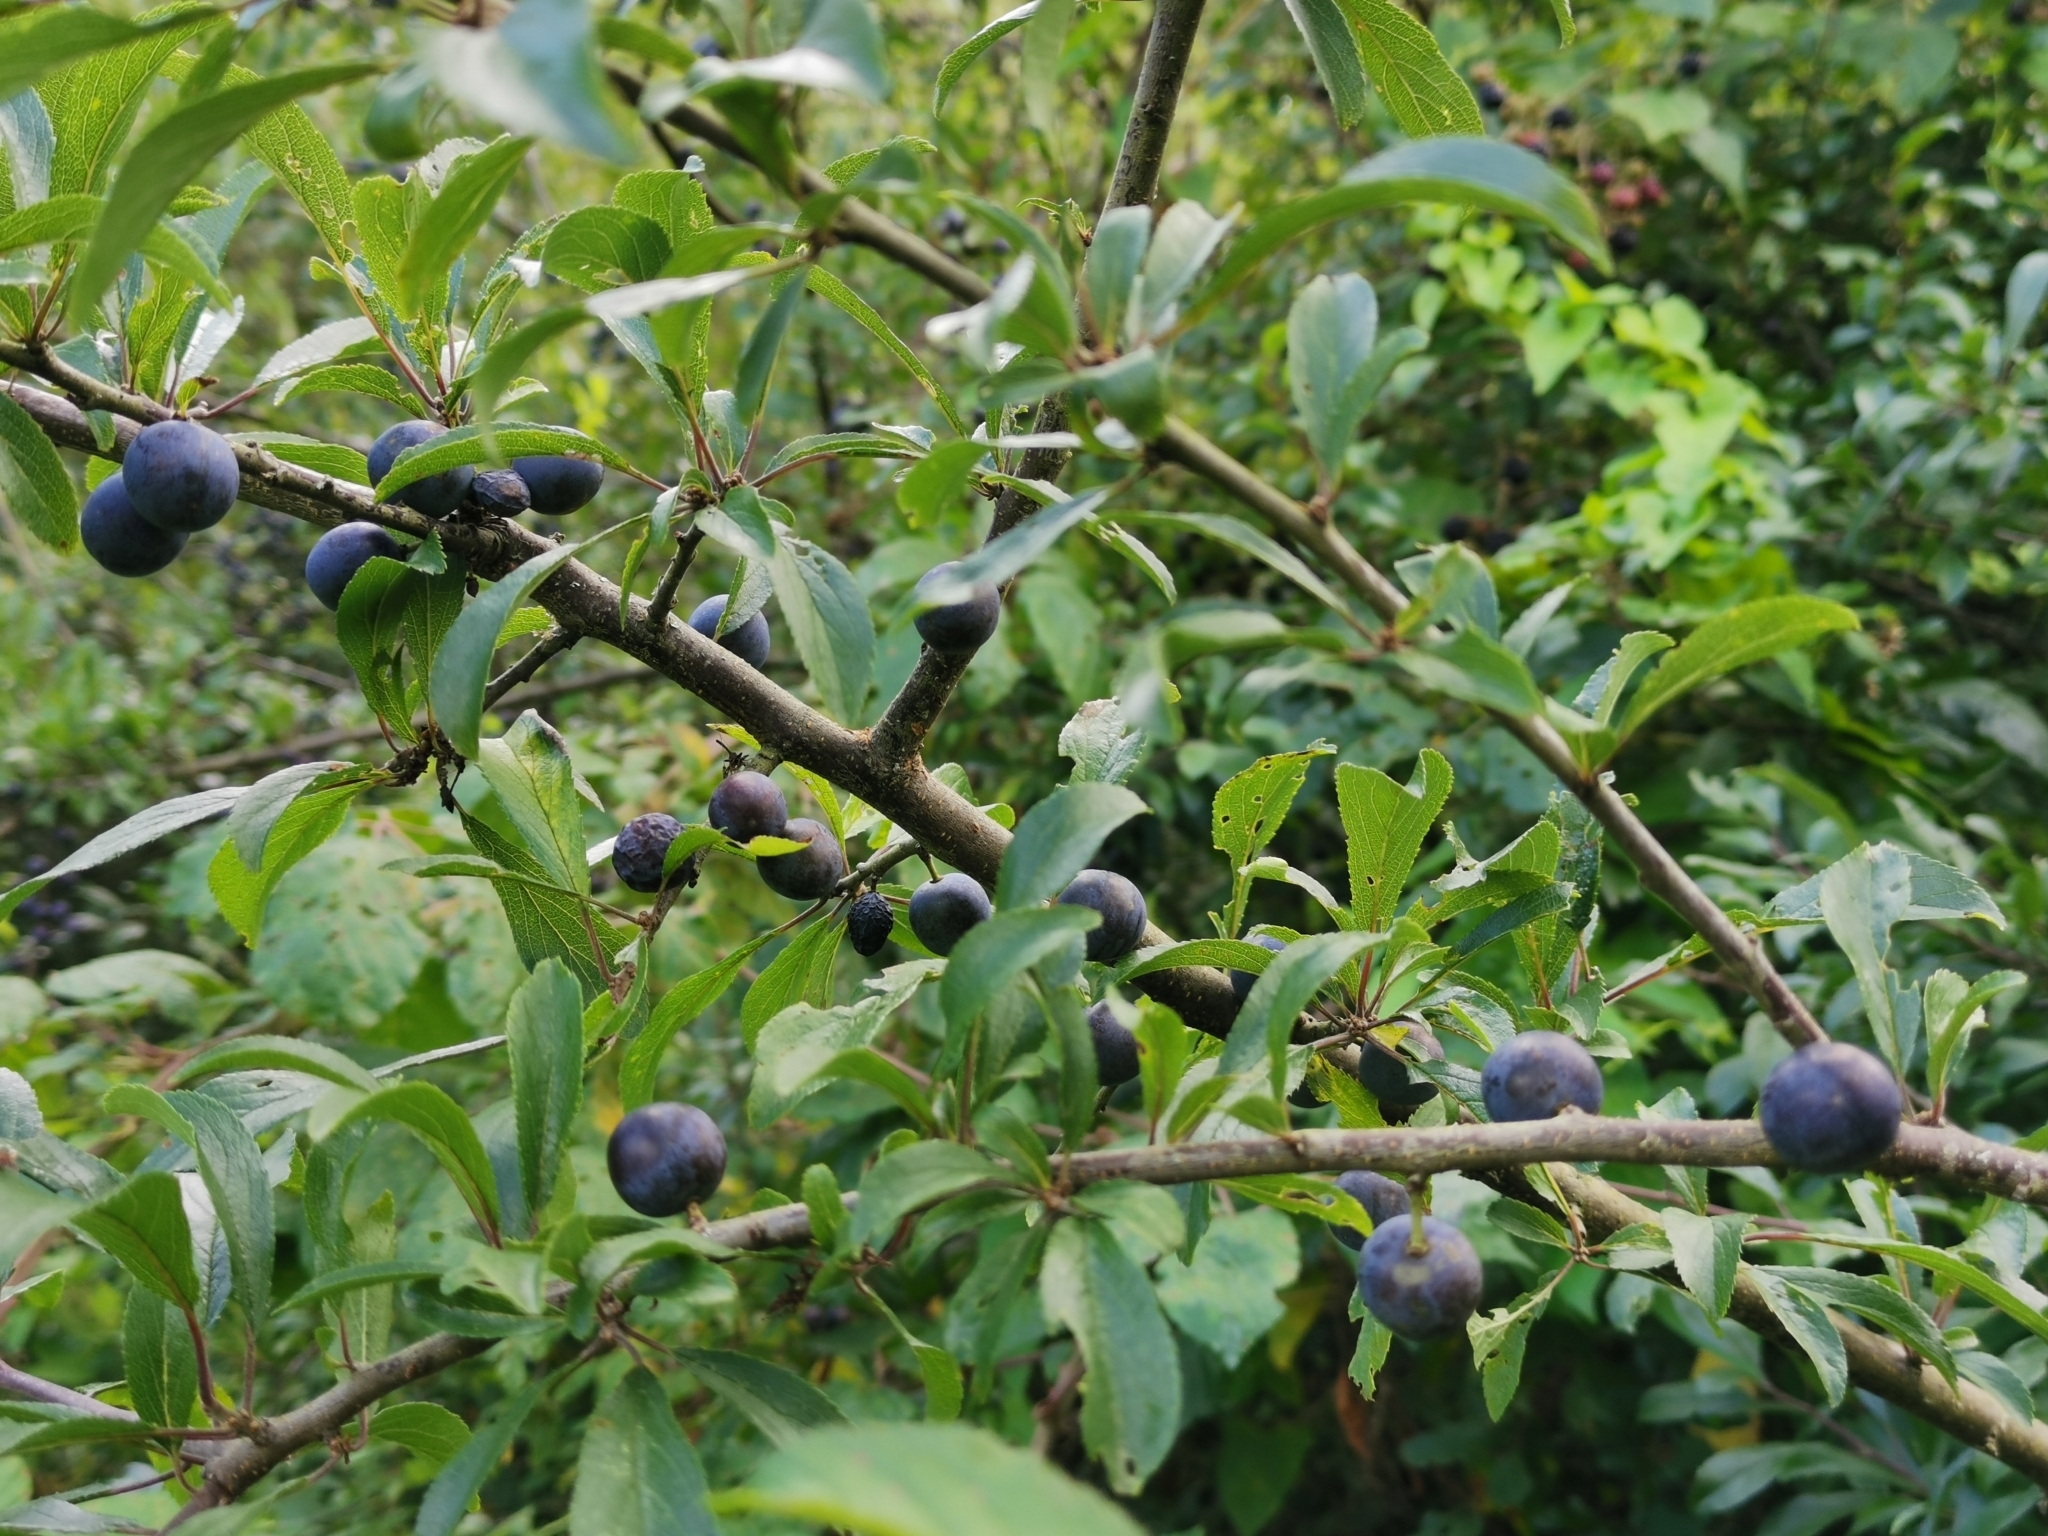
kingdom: Plantae
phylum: Tracheophyta
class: Magnoliopsida
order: Rosales
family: Rosaceae
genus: Prunus
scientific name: Prunus spinosa
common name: Blackthorn
